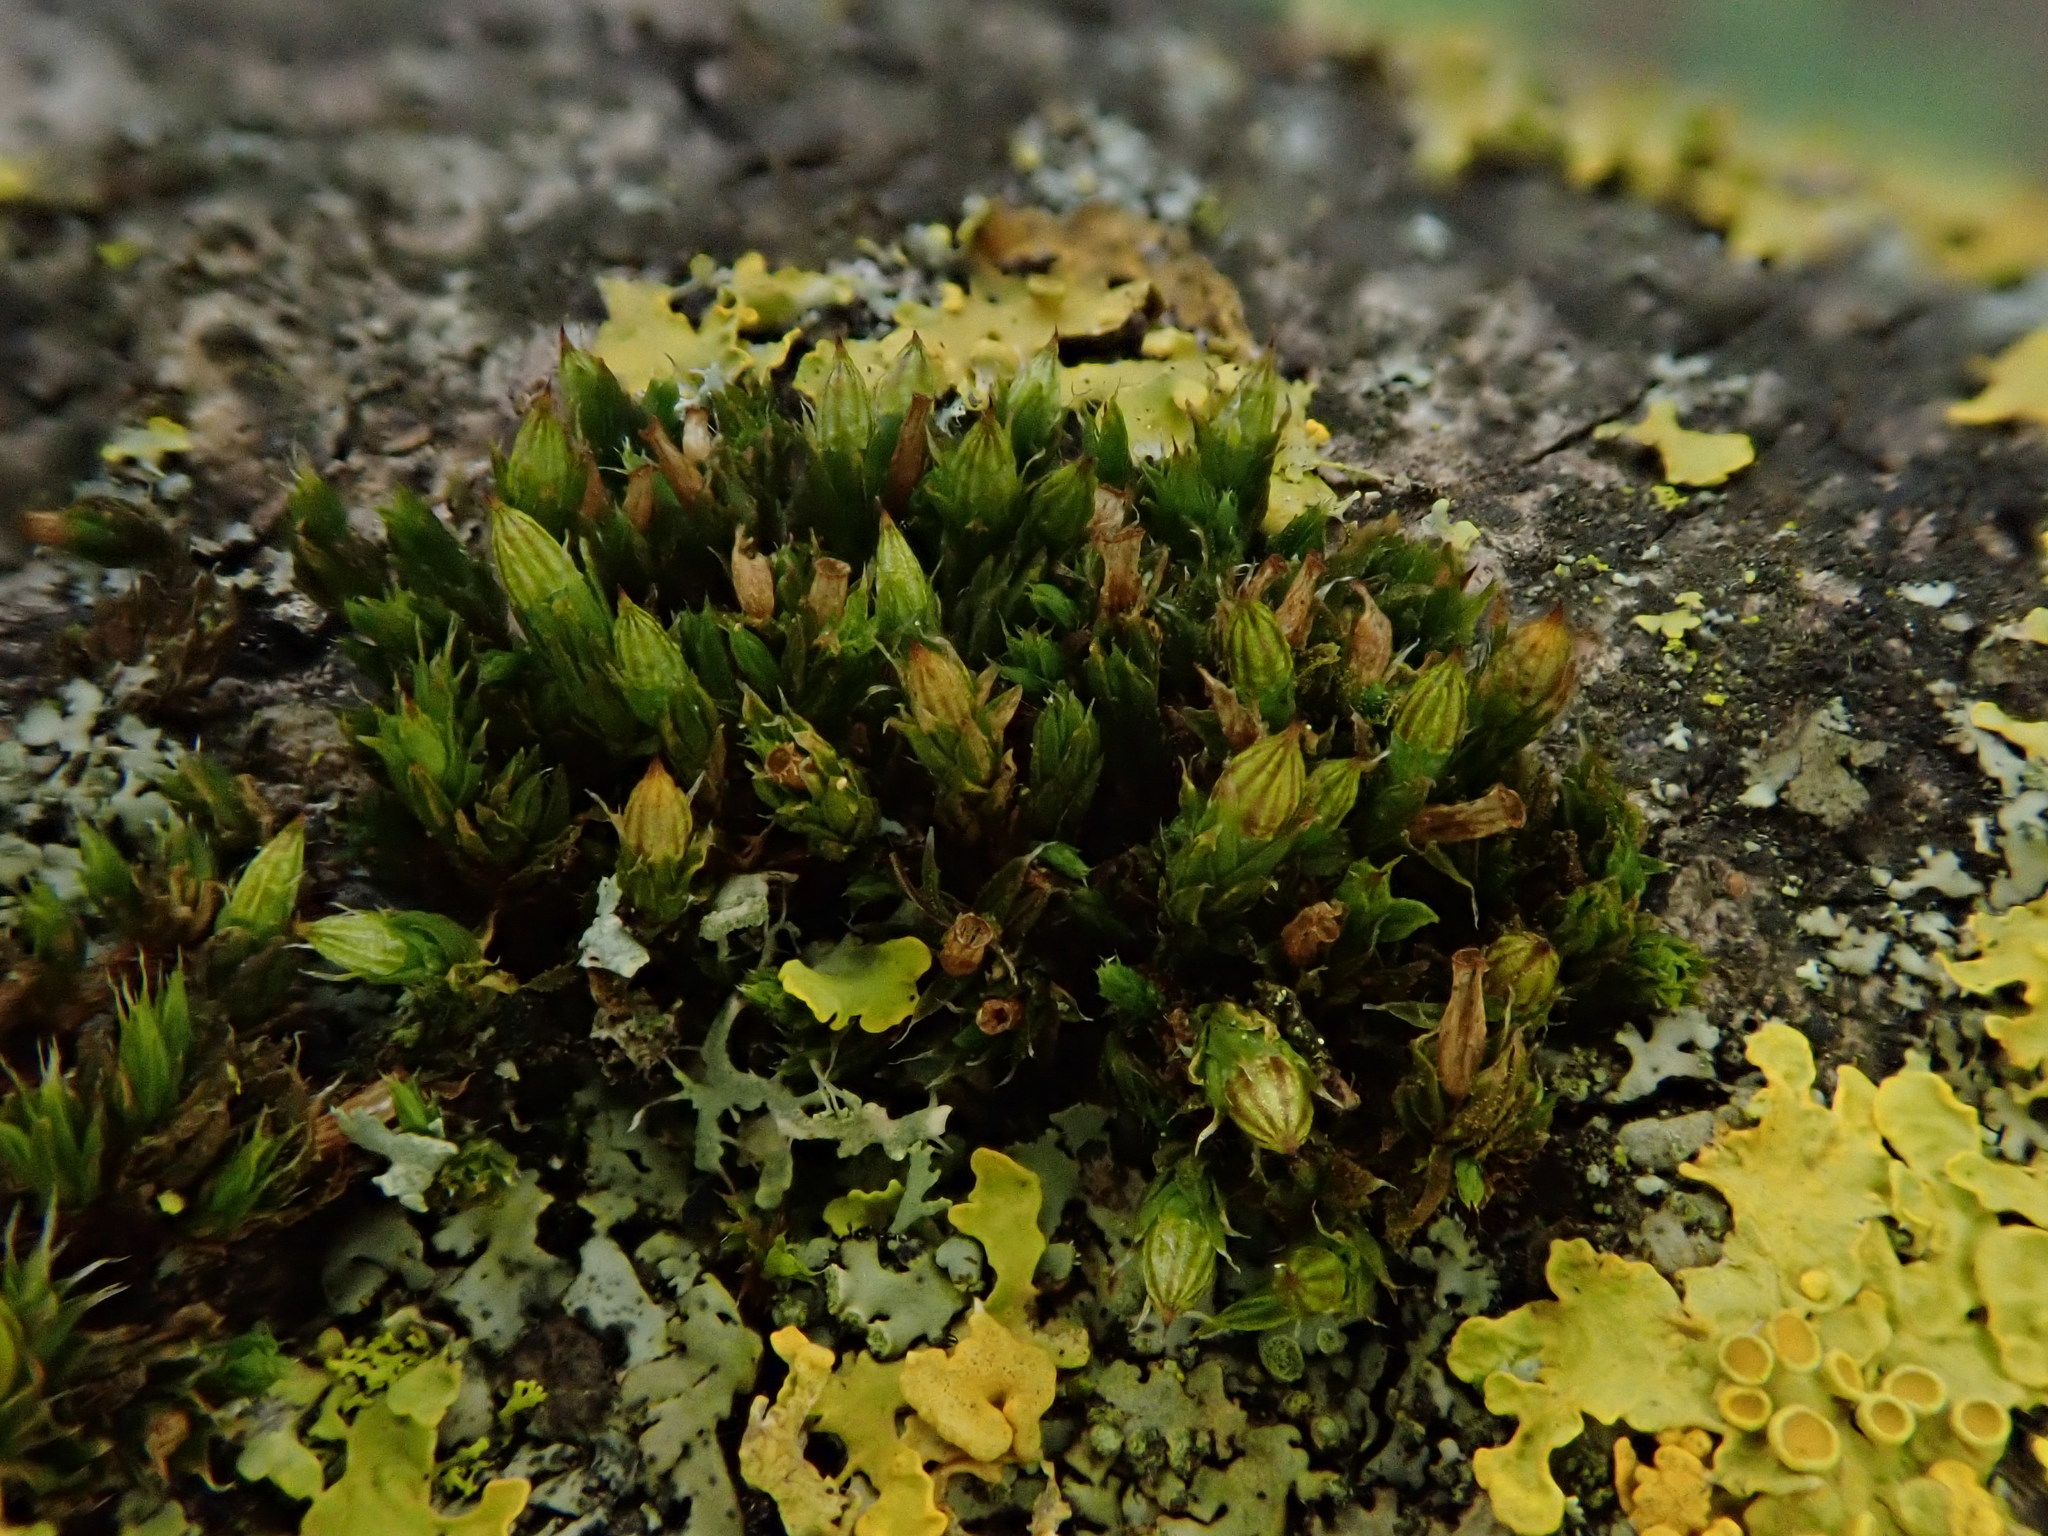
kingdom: Plantae
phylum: Bryophyta
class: Bryopsida
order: Orthotrichales
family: Orthotrichaceae
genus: Orthotrichum
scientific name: Orthotrichum diaphanum
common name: White-tipped bristle-moss
